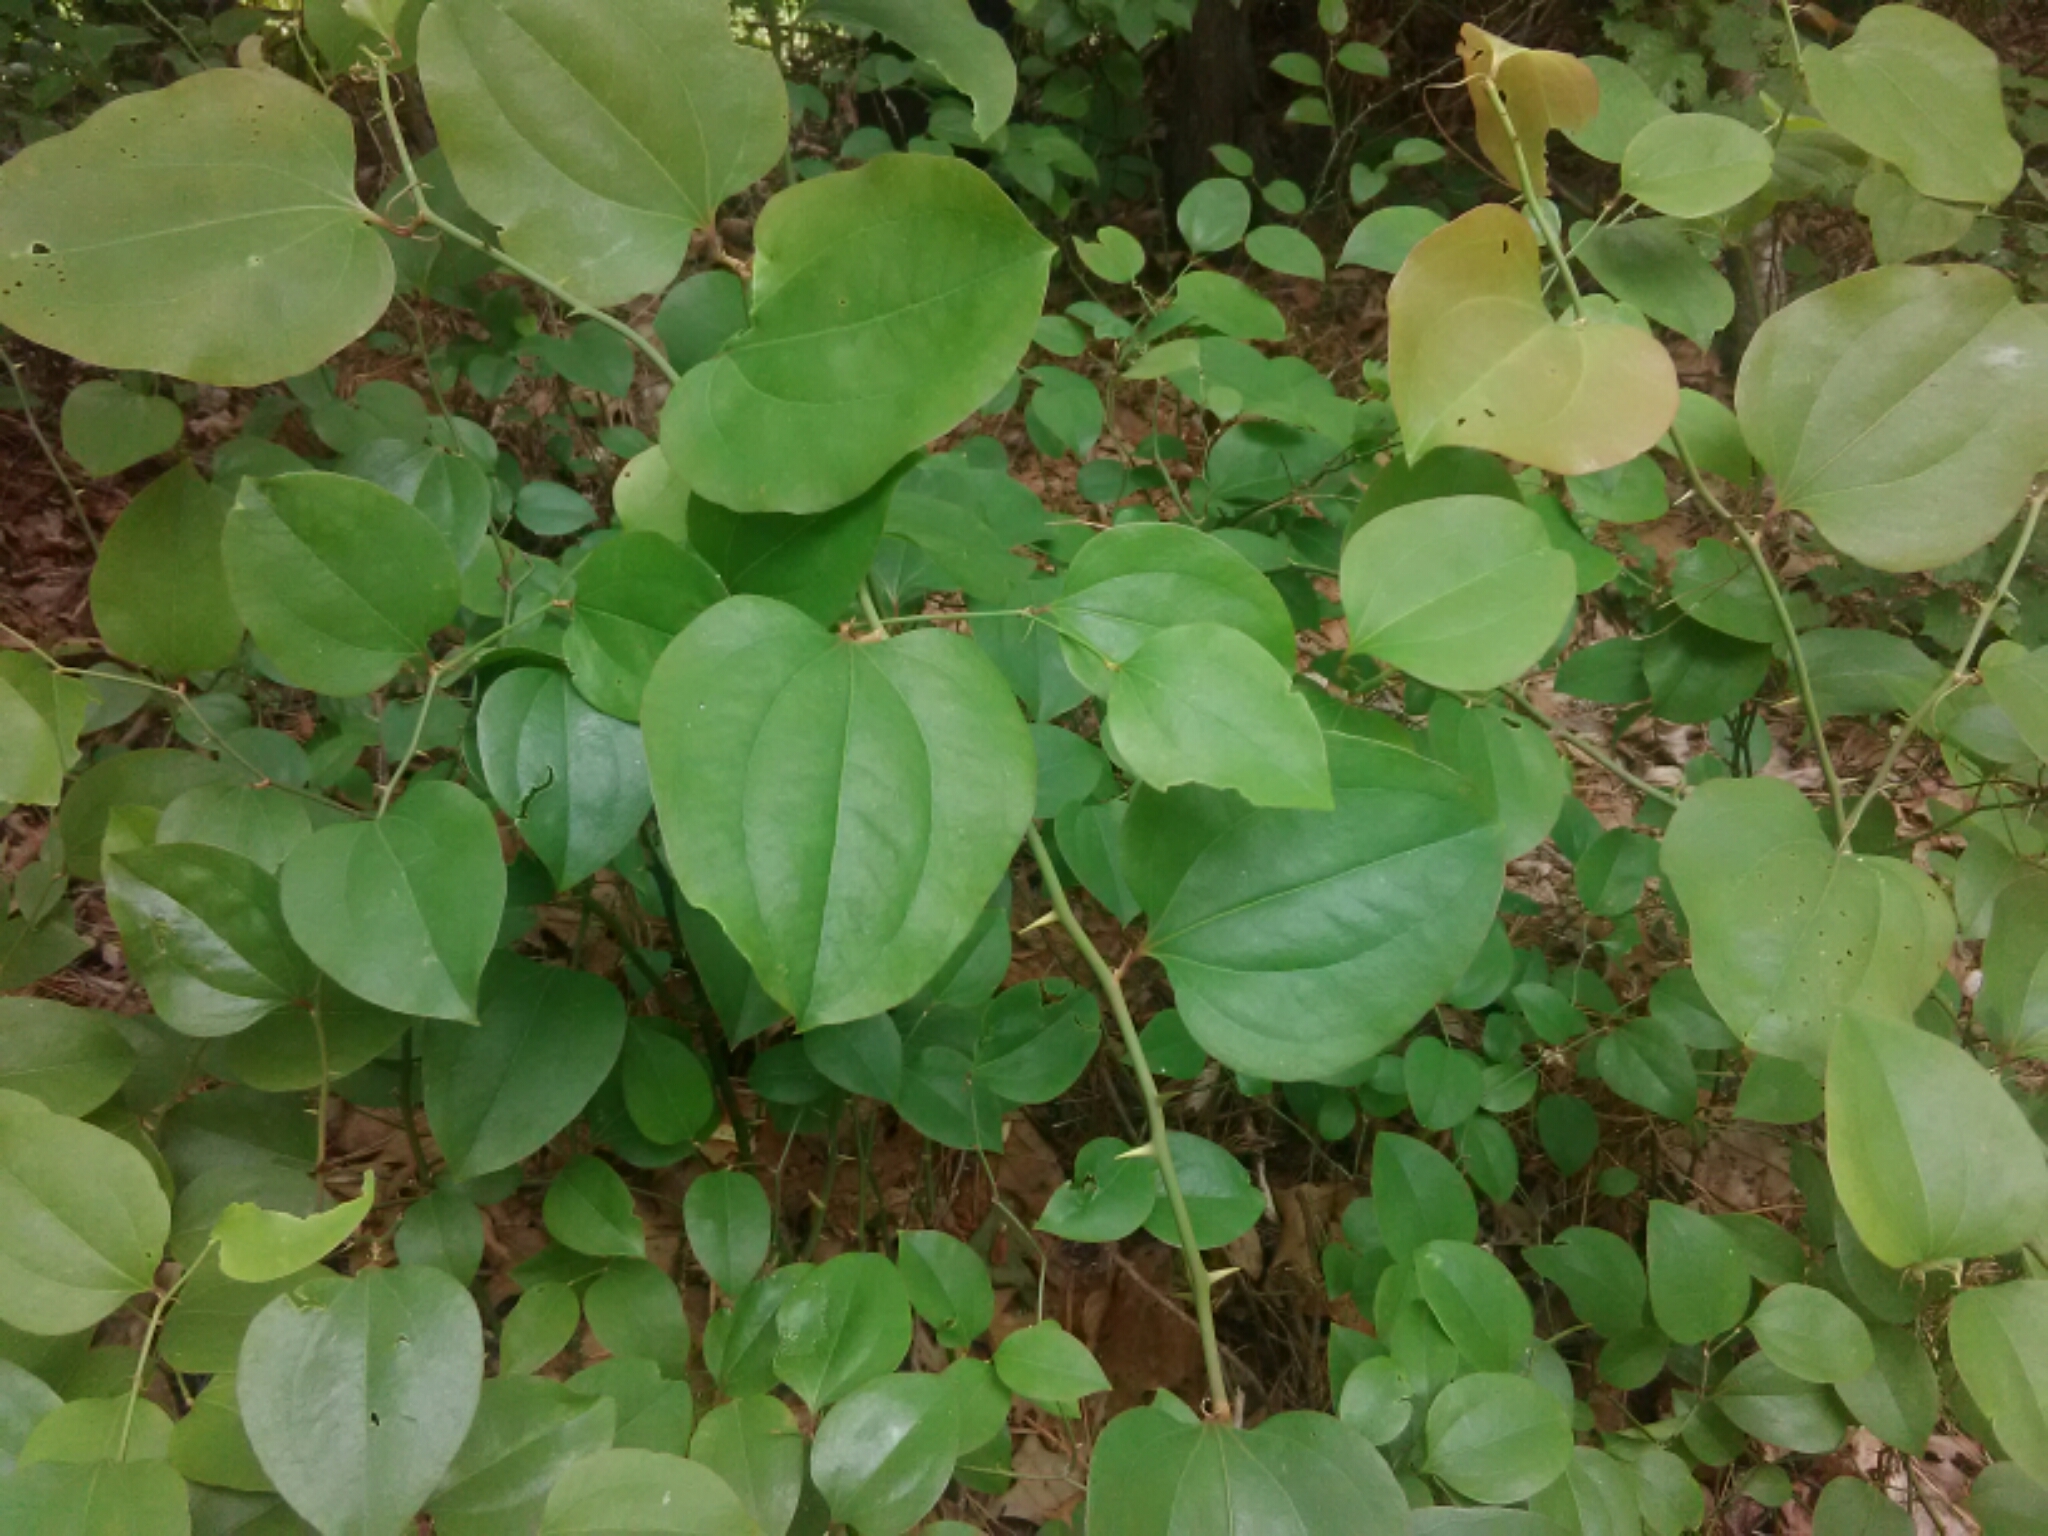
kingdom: Plantae
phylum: Tracheophyta
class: Liliopsida
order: Liliales
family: Smilacaceae
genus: Smilax
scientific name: Smilax rotundifolia
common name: Bullbriar
